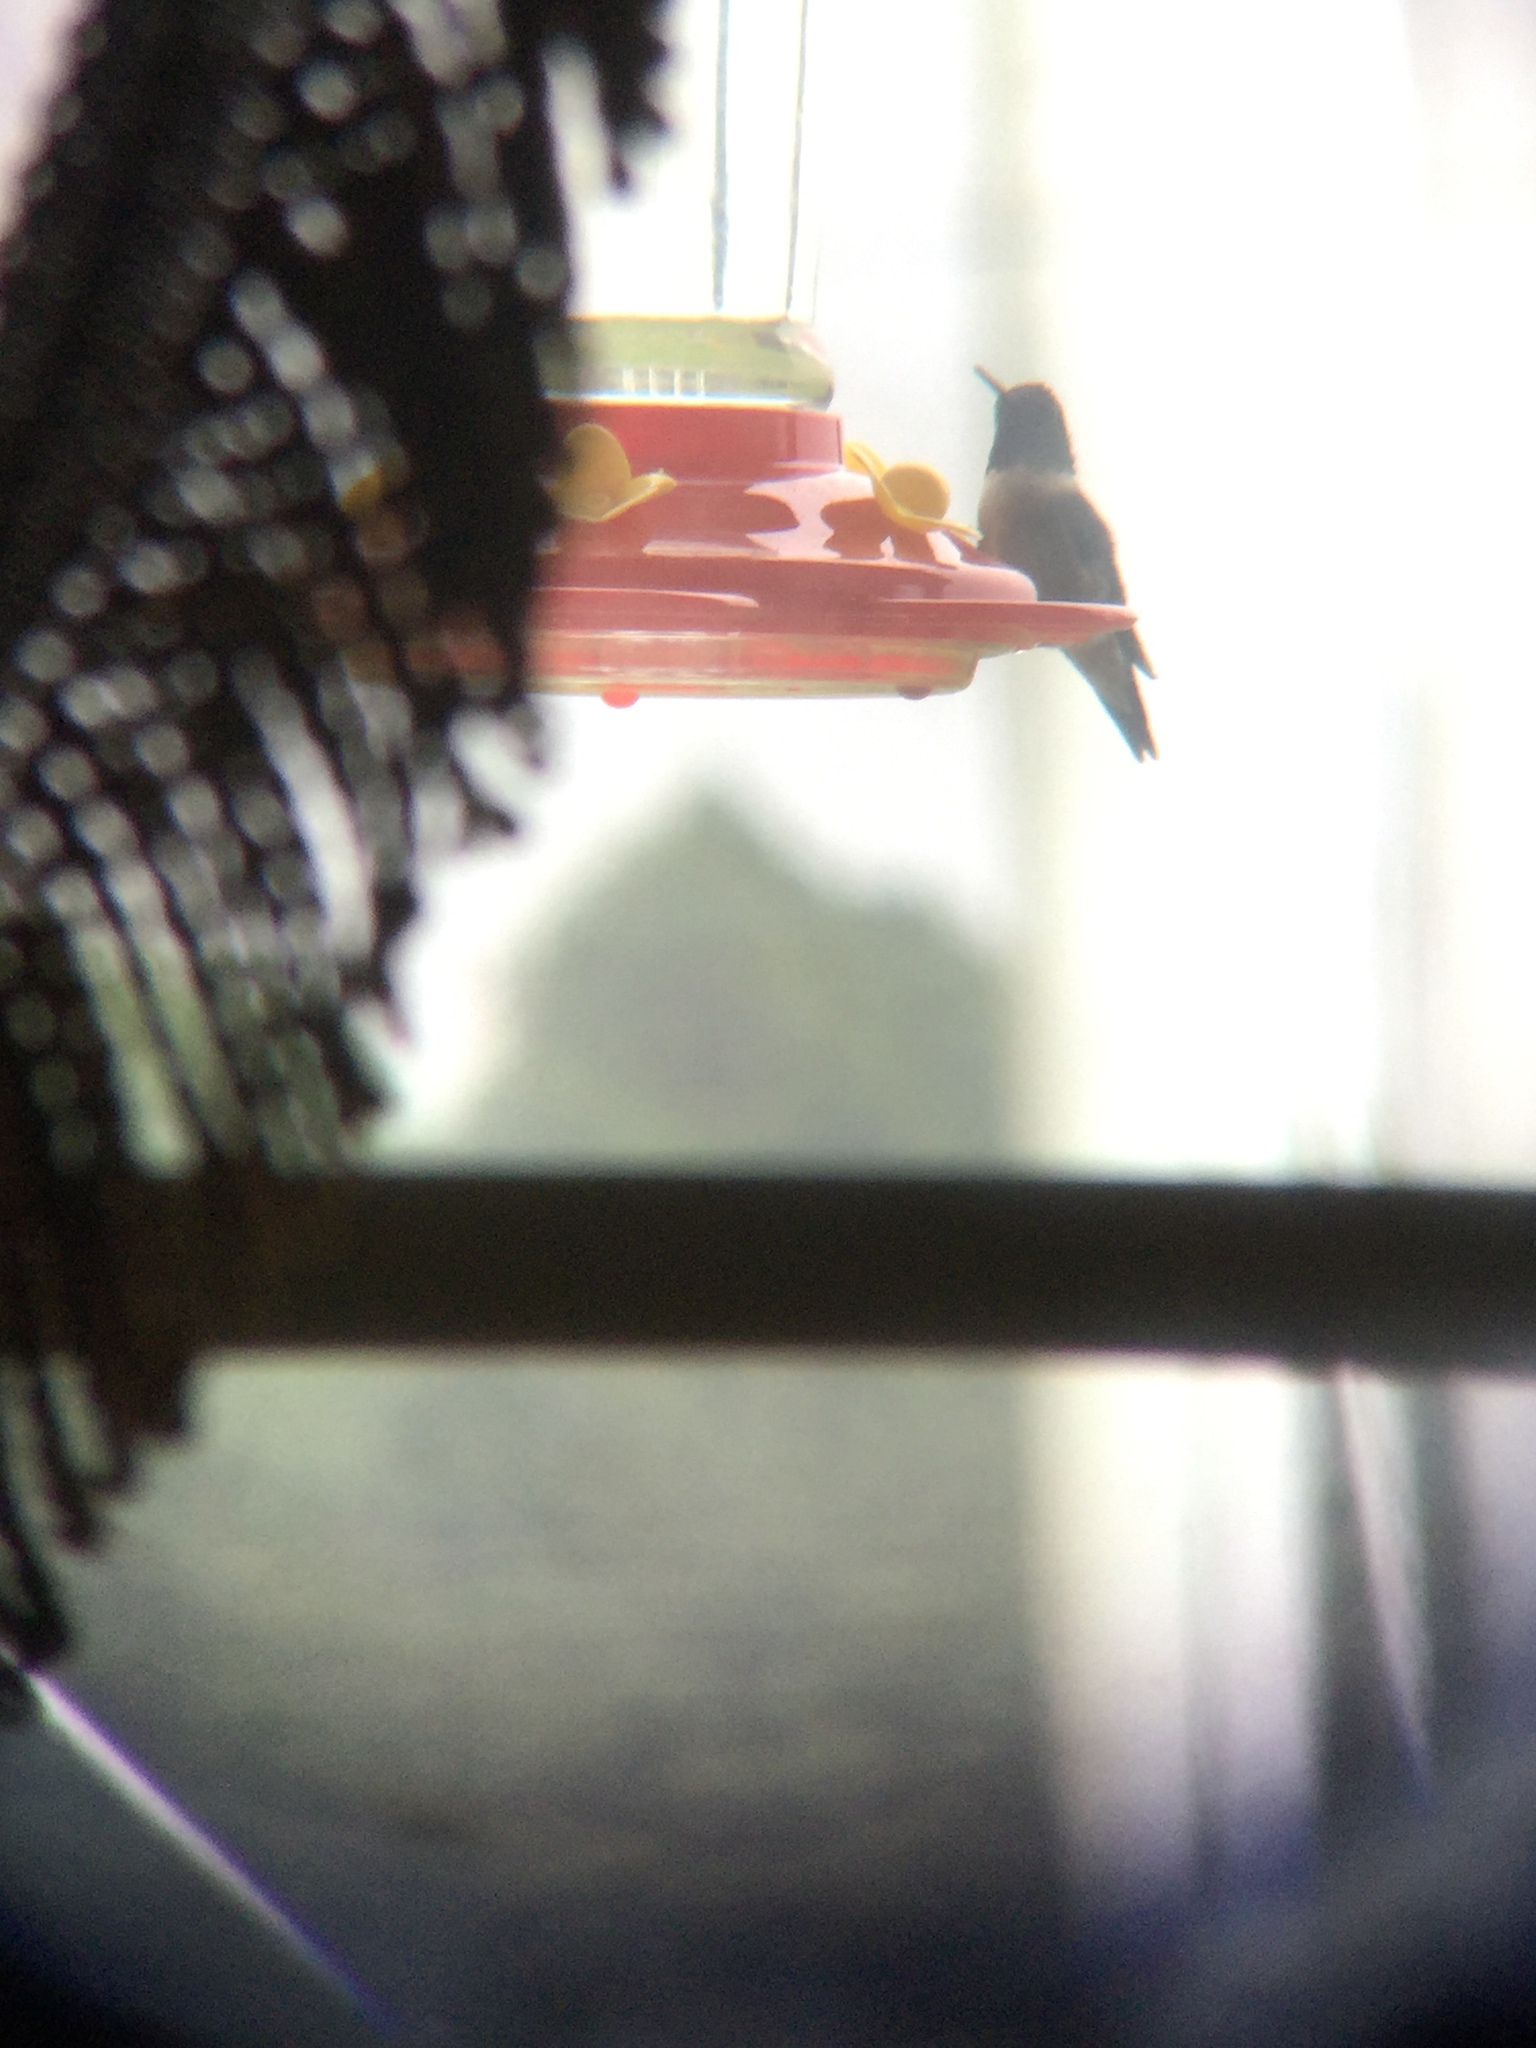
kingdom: Animalia
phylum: Chordata
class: Aves
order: Apodiformes
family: Trochilidae
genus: Archilochus
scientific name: Archilochus colubris
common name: Ruby-throated hummingbird
